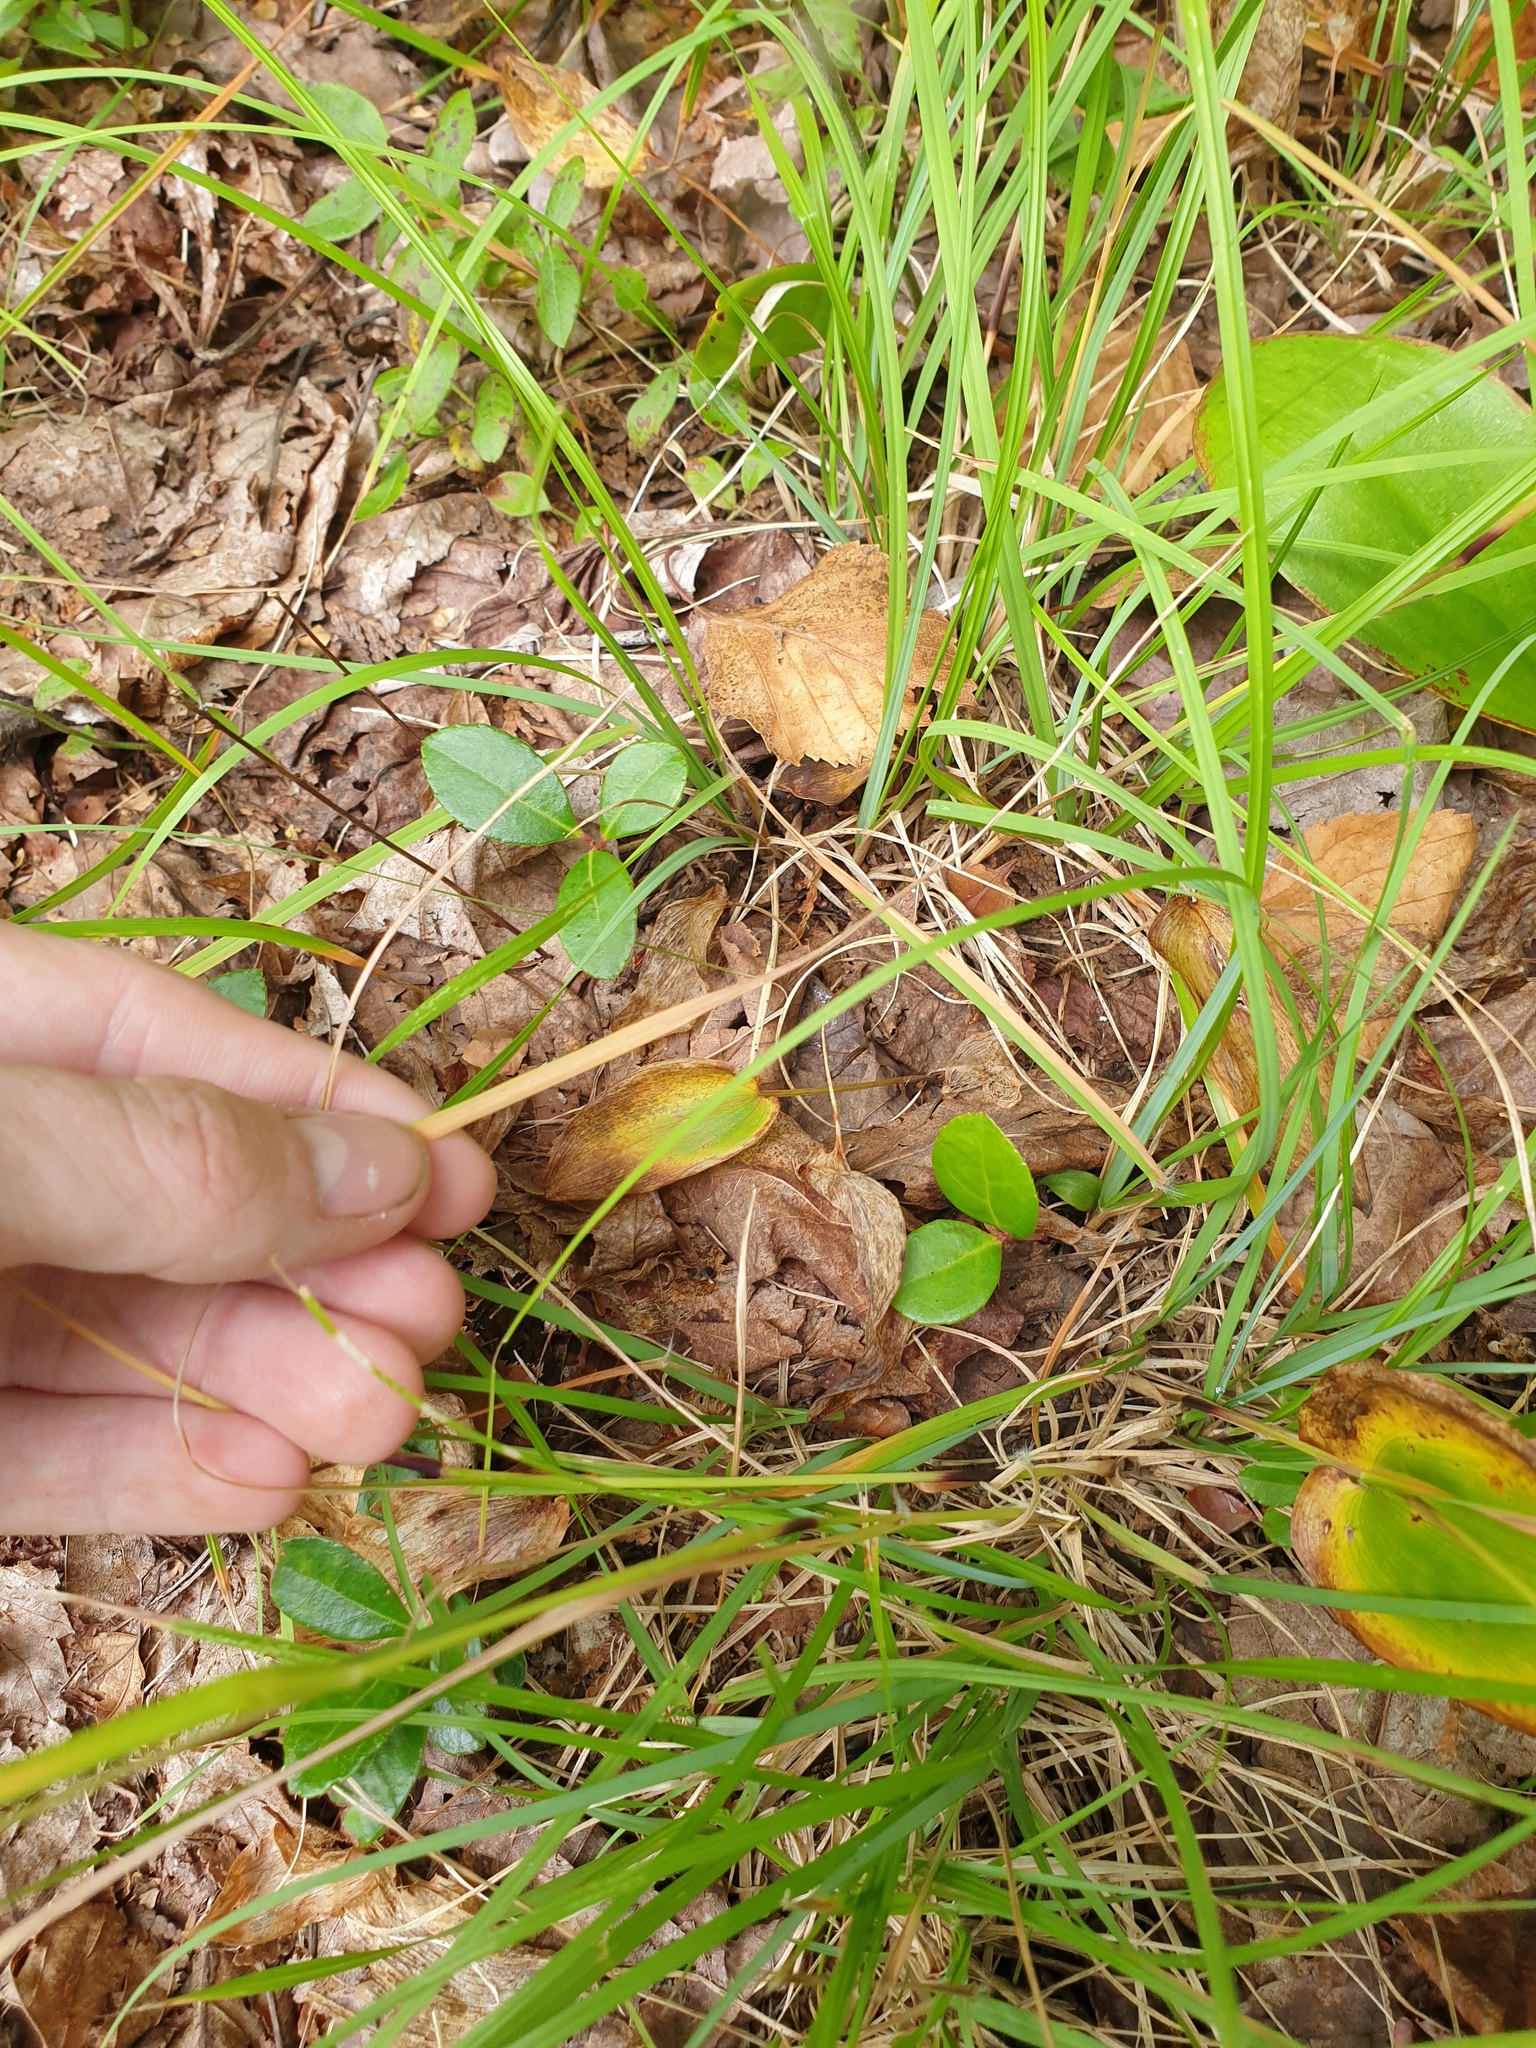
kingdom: Plantae
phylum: Tracheophyta
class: Liliopsida
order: Poales
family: Poaceae
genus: Danthonia
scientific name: Danthonia compressa
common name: Flat-stem oat grass
